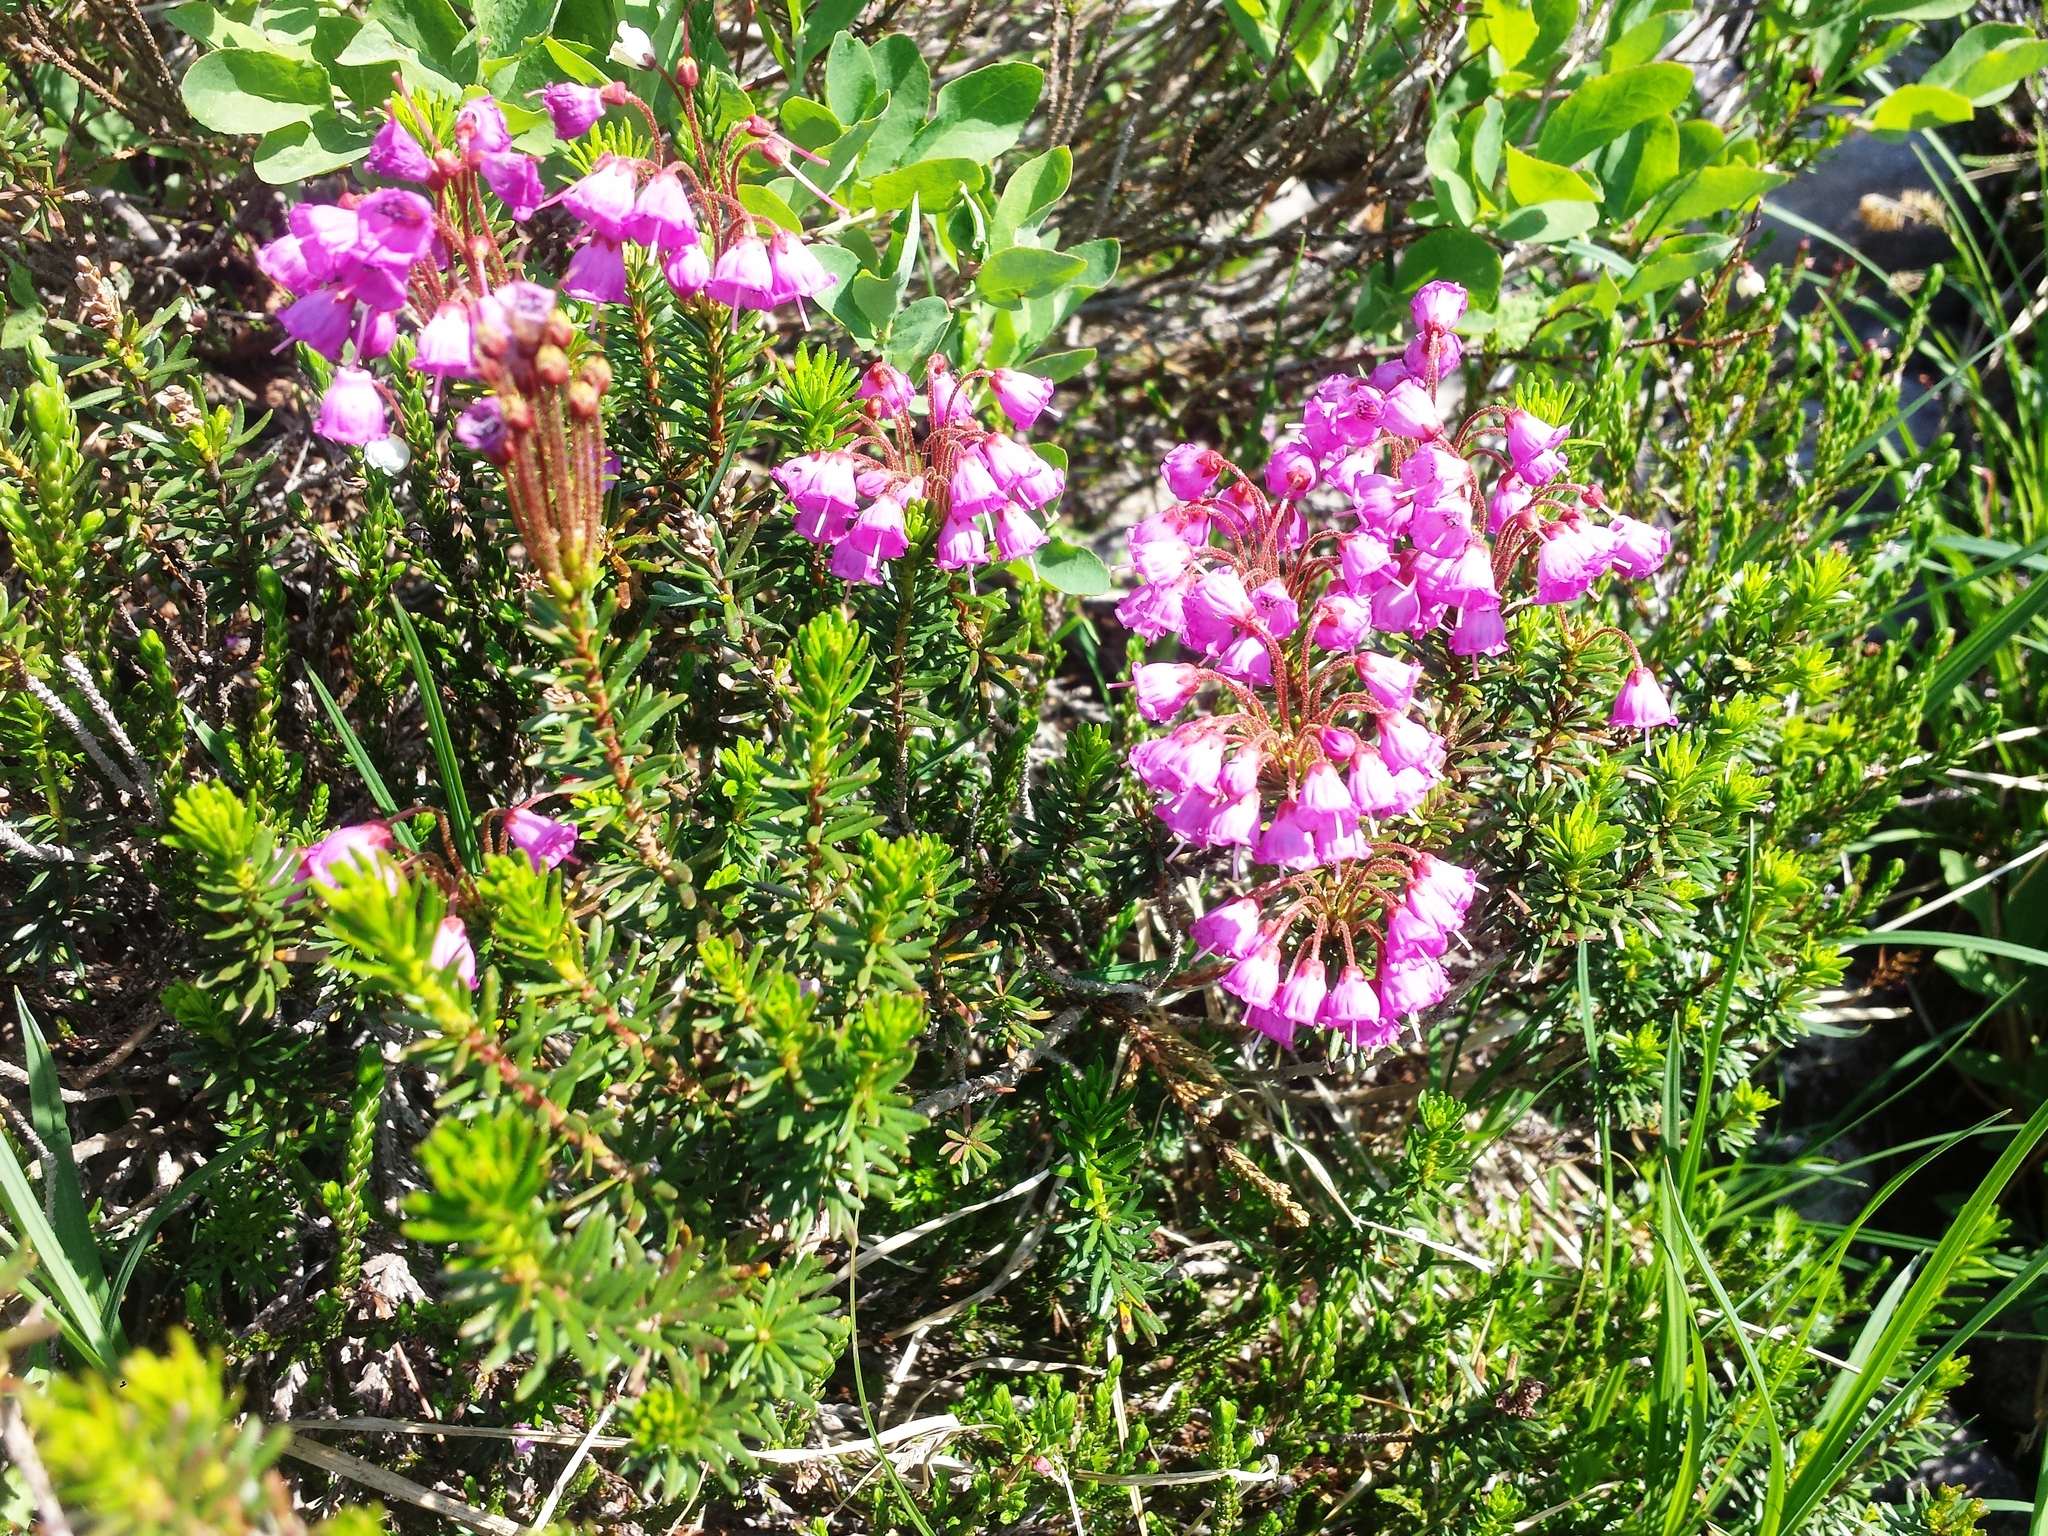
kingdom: Plantae
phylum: Tracheophyta
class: Magnoliopsida
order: Ericales
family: Ericaceae
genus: Phyllodoce
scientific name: Phyllodoce empetriformis
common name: Pink mountain heather
